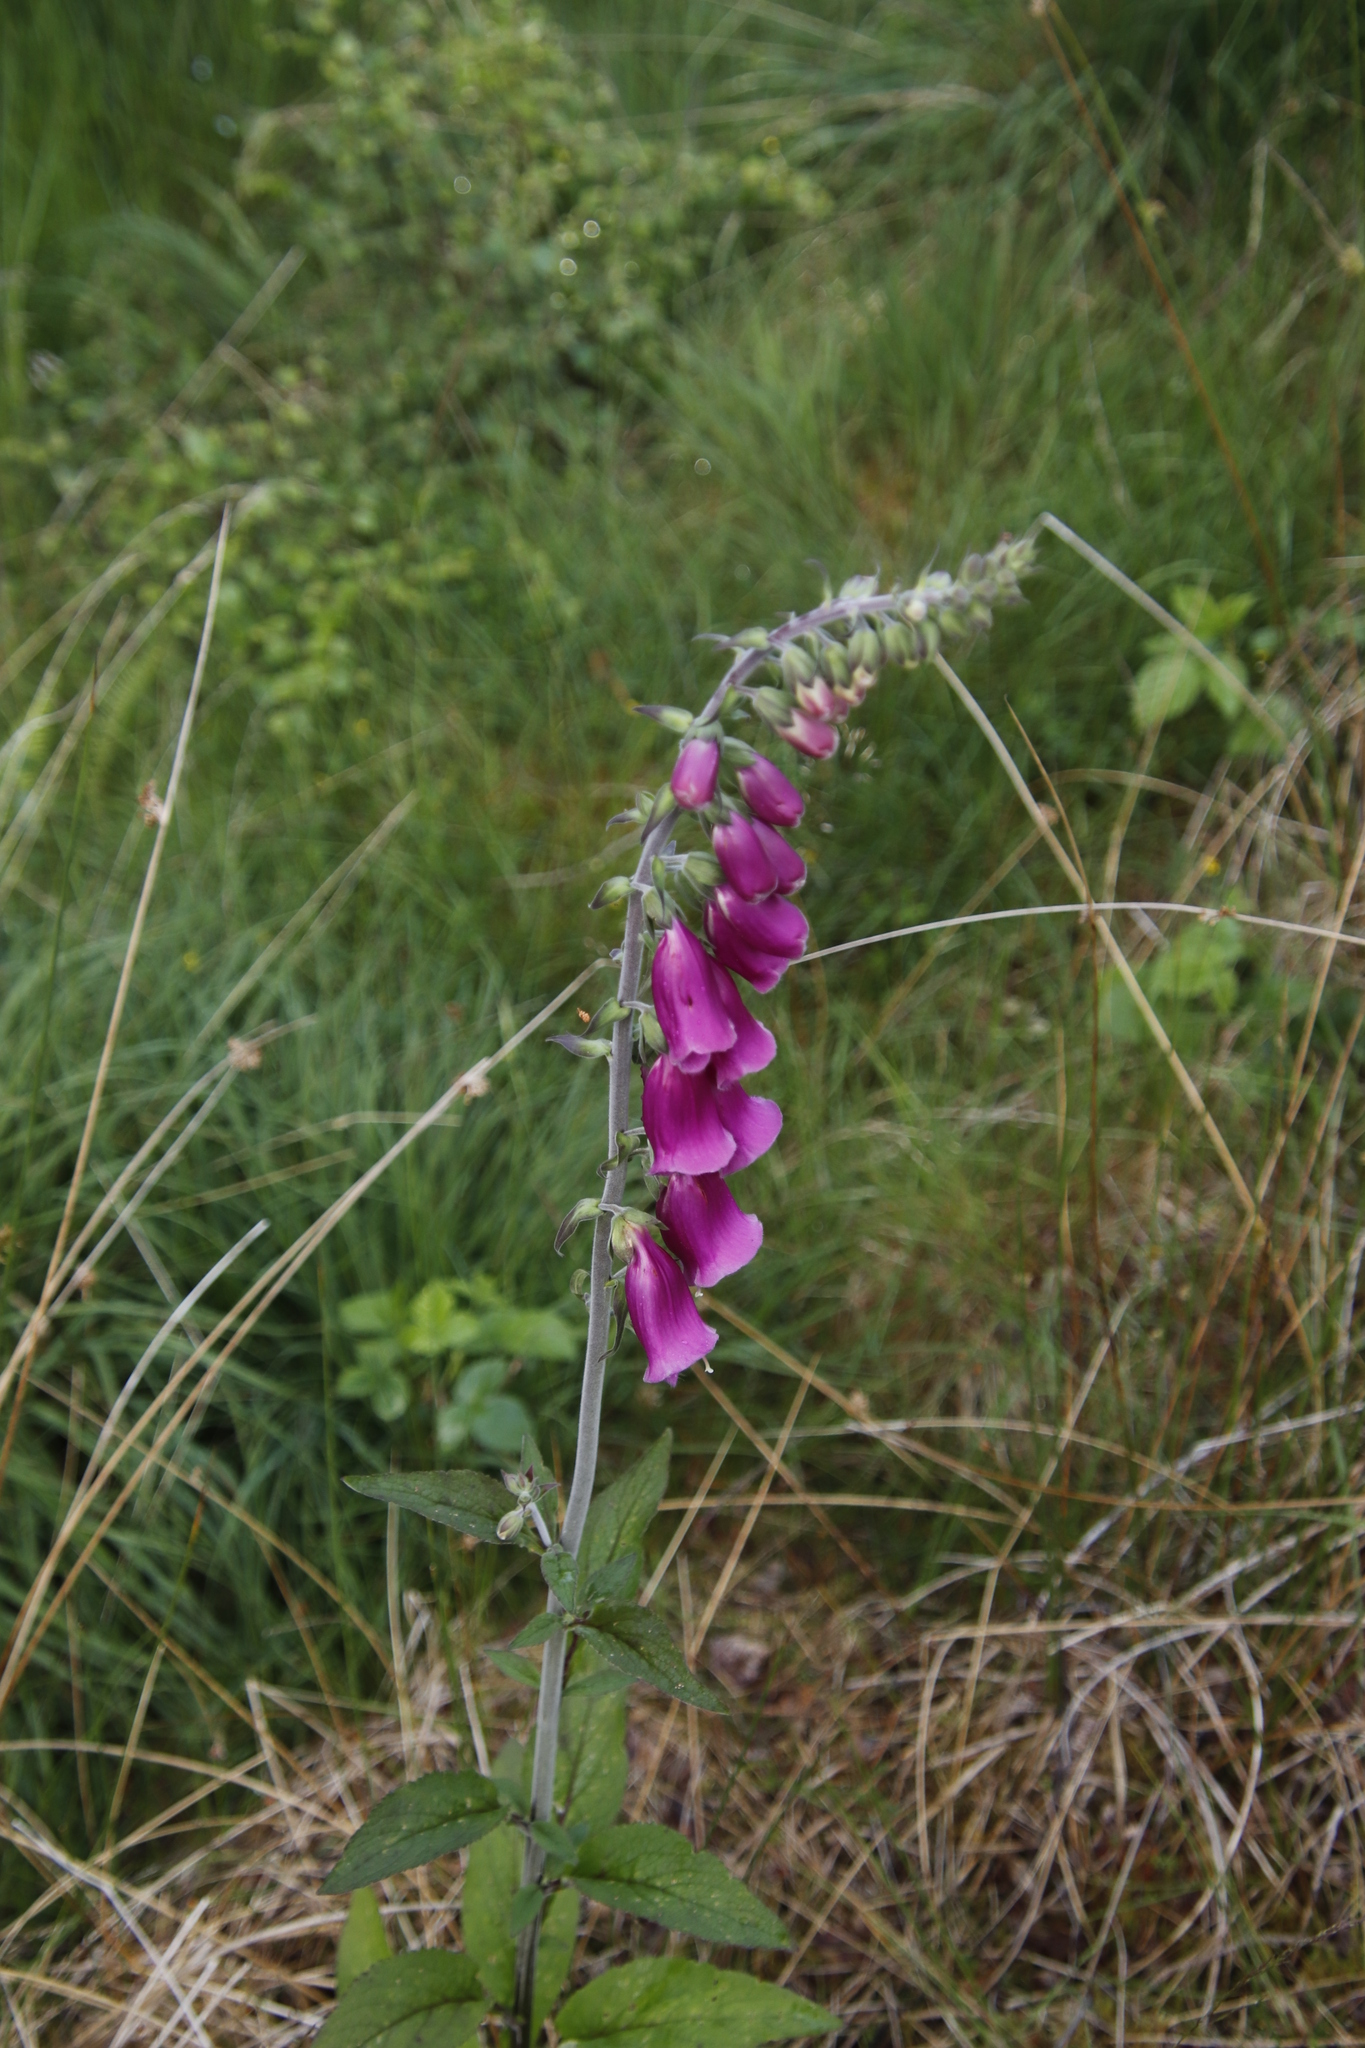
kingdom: Plantae
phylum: Tracheophyta
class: Magnoliopsida
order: Lamiales
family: Plantaginaceae
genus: Digitalis
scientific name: Digitalis purpurea
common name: Foxglove
